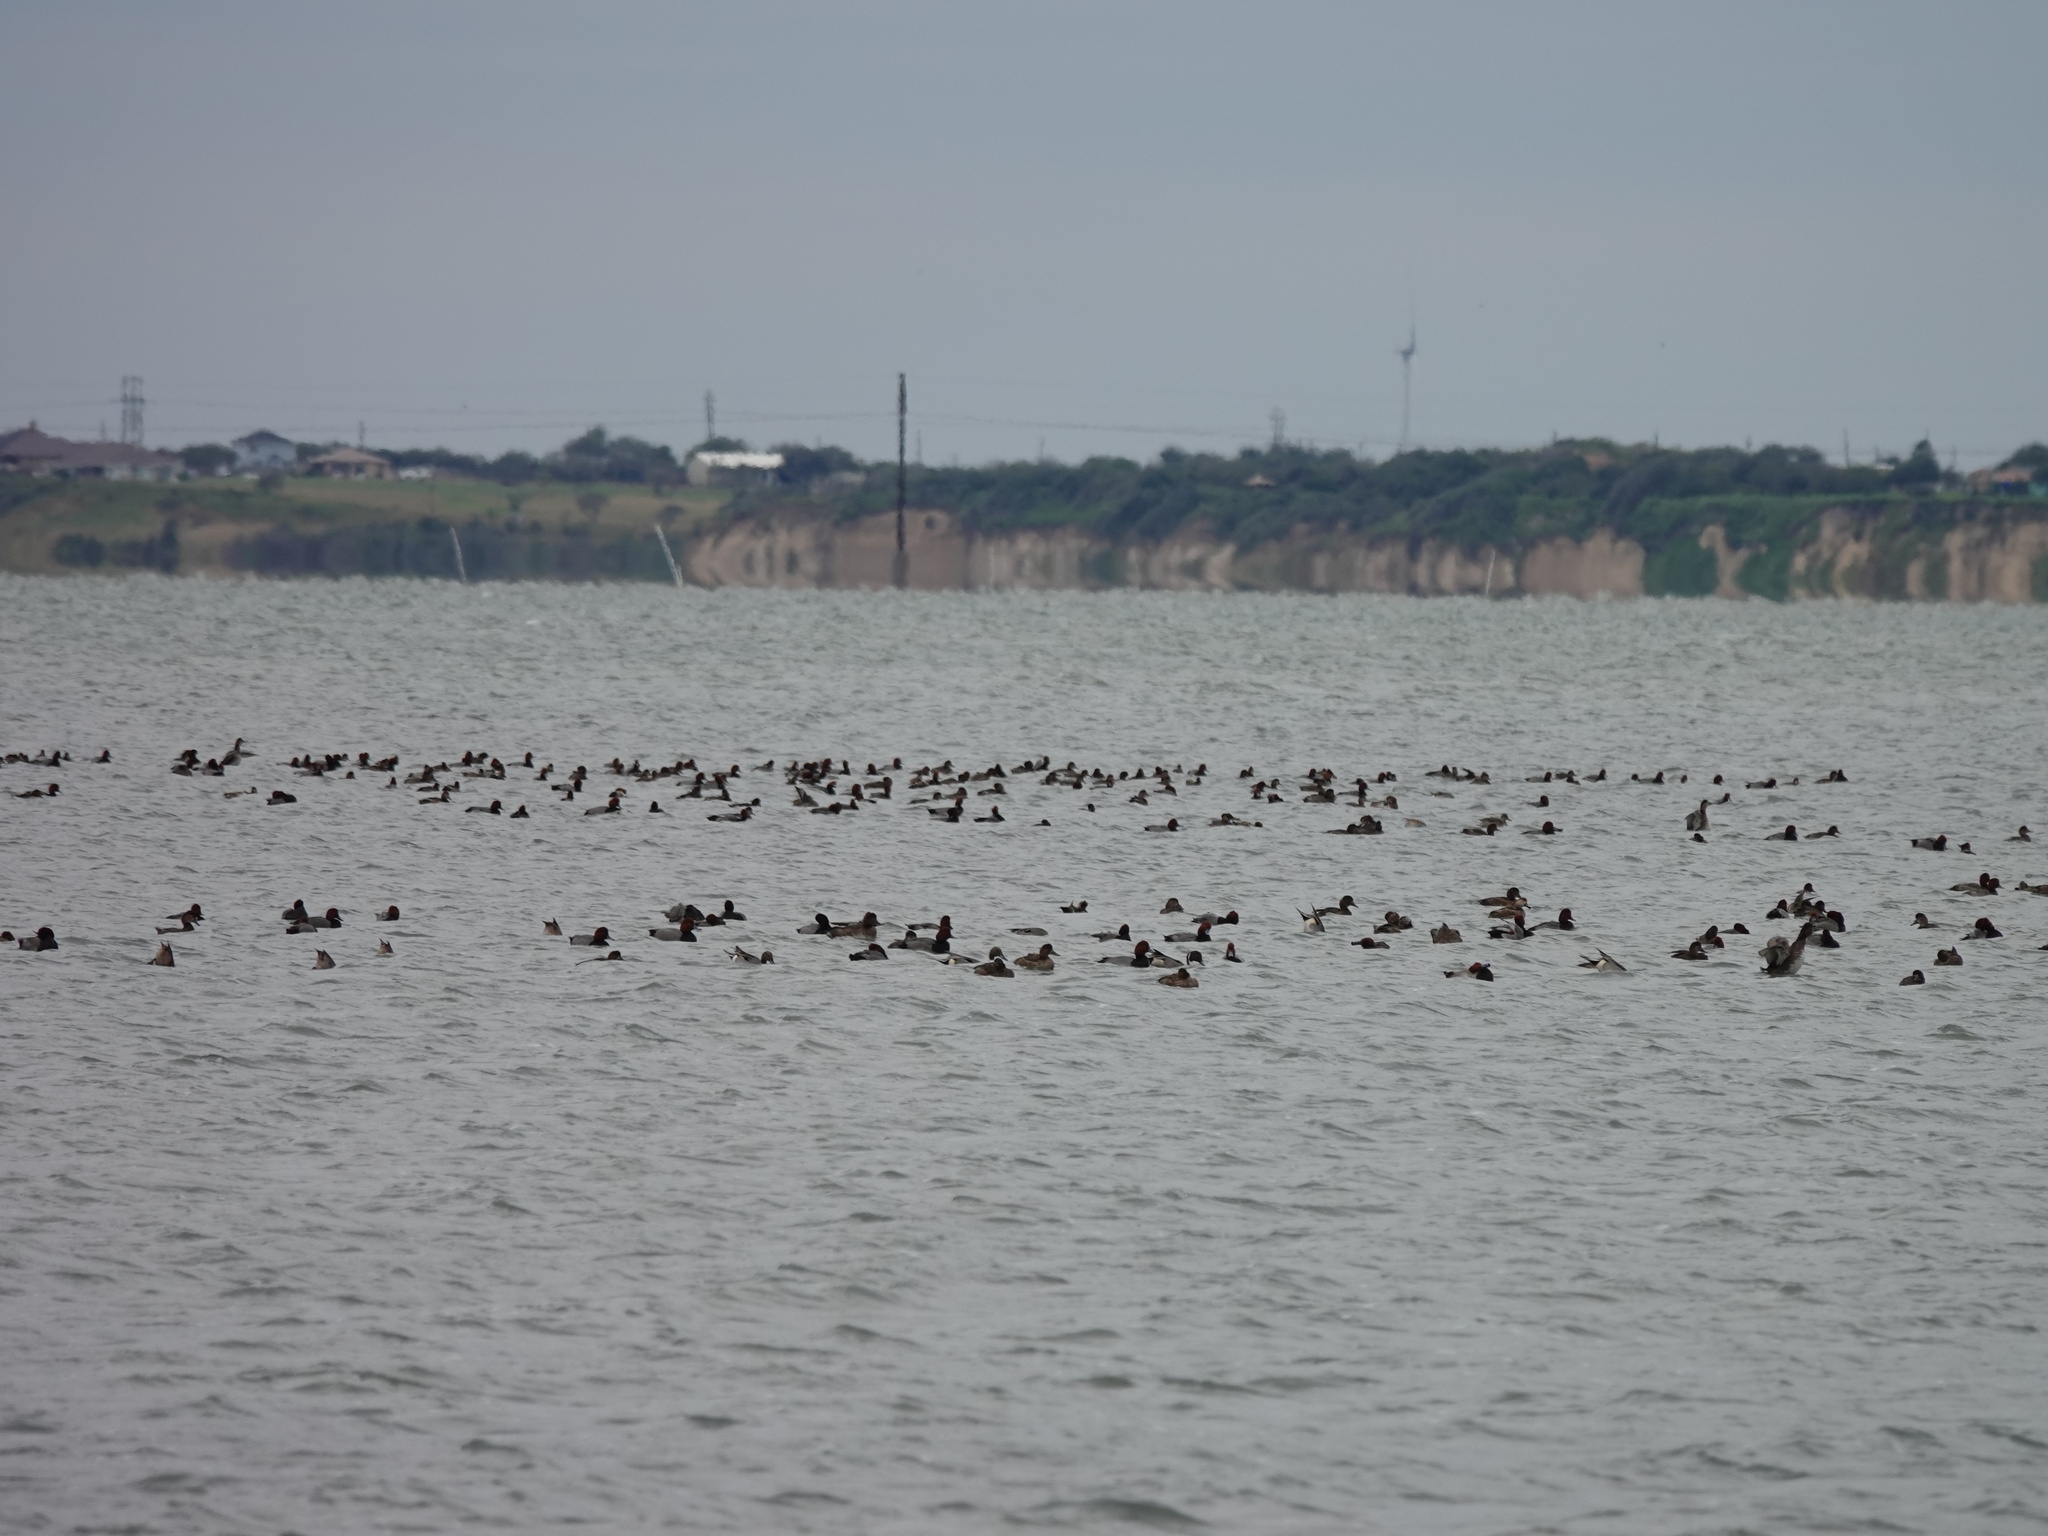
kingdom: Animalia
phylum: Chordata
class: Aves
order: Anseriformes
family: Anatidae
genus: Anas
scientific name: Anas acuta
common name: Northern pintail
